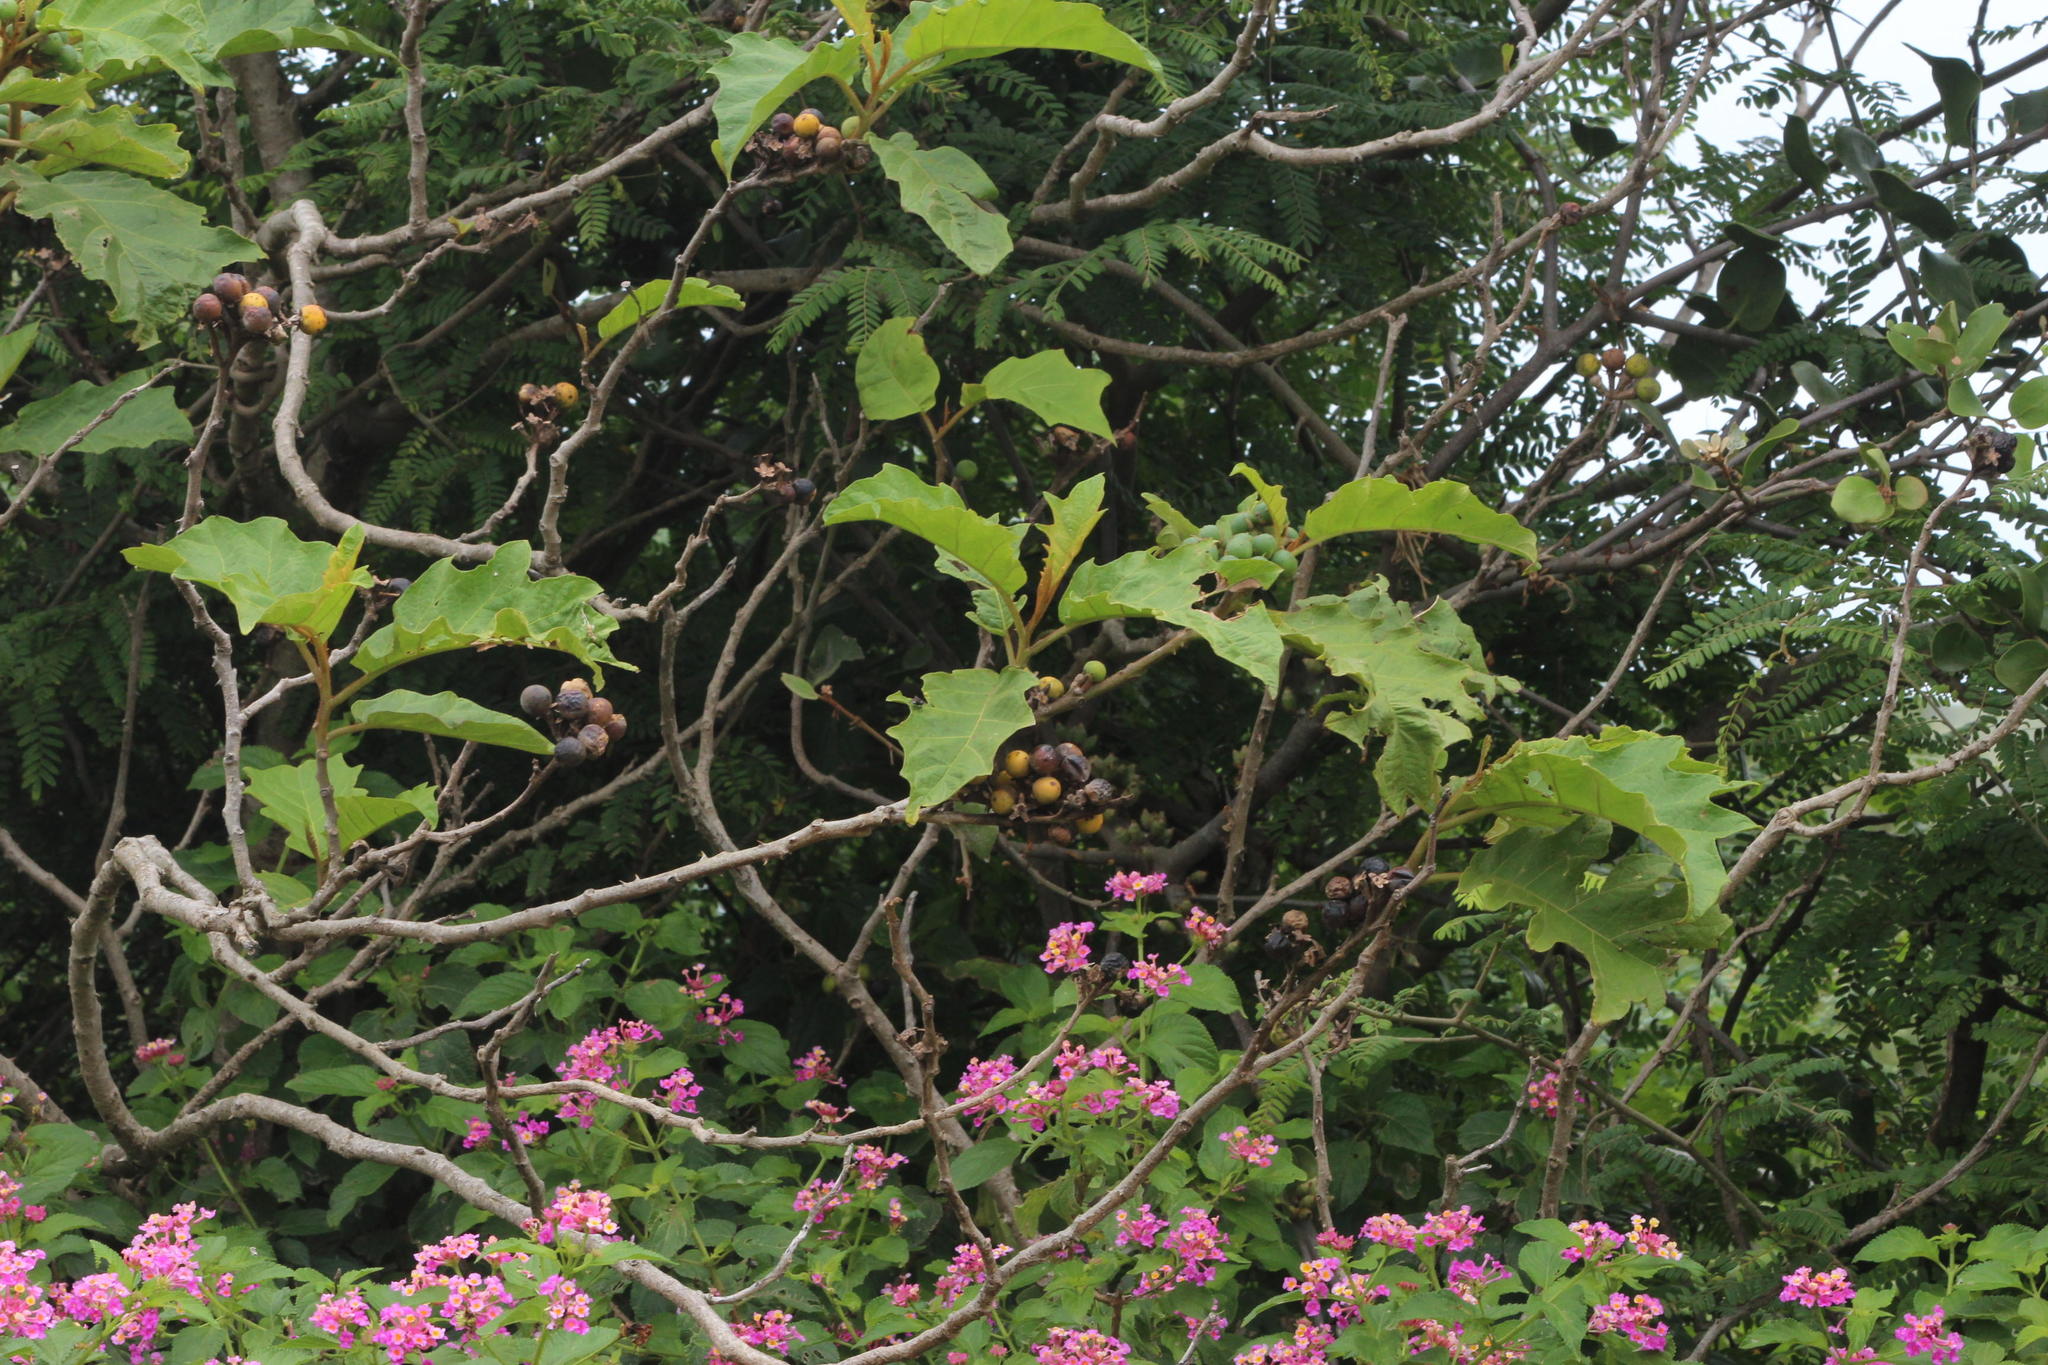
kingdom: Plantae
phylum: Tracheophyta
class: Magnoliopsida
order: Solanales
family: Solanaceae
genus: Solanum
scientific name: Solanum chrysotrichum
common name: Nightshade
